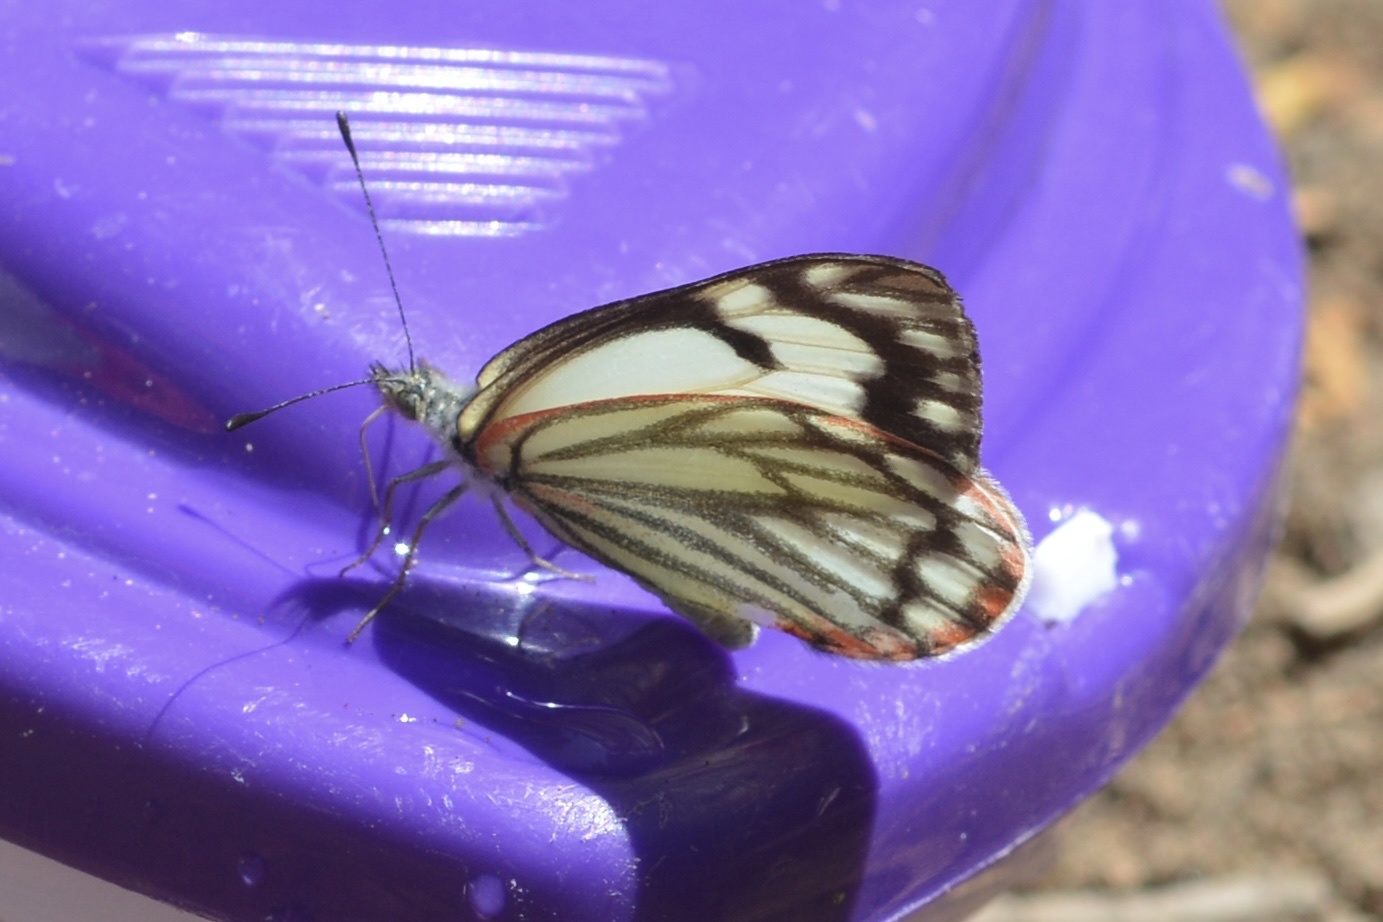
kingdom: Animalia
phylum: Arthropoda
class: Insecta
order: Lepidoptera
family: Pieridae
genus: Neophasia
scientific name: Neophasia menapia
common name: Pine white
